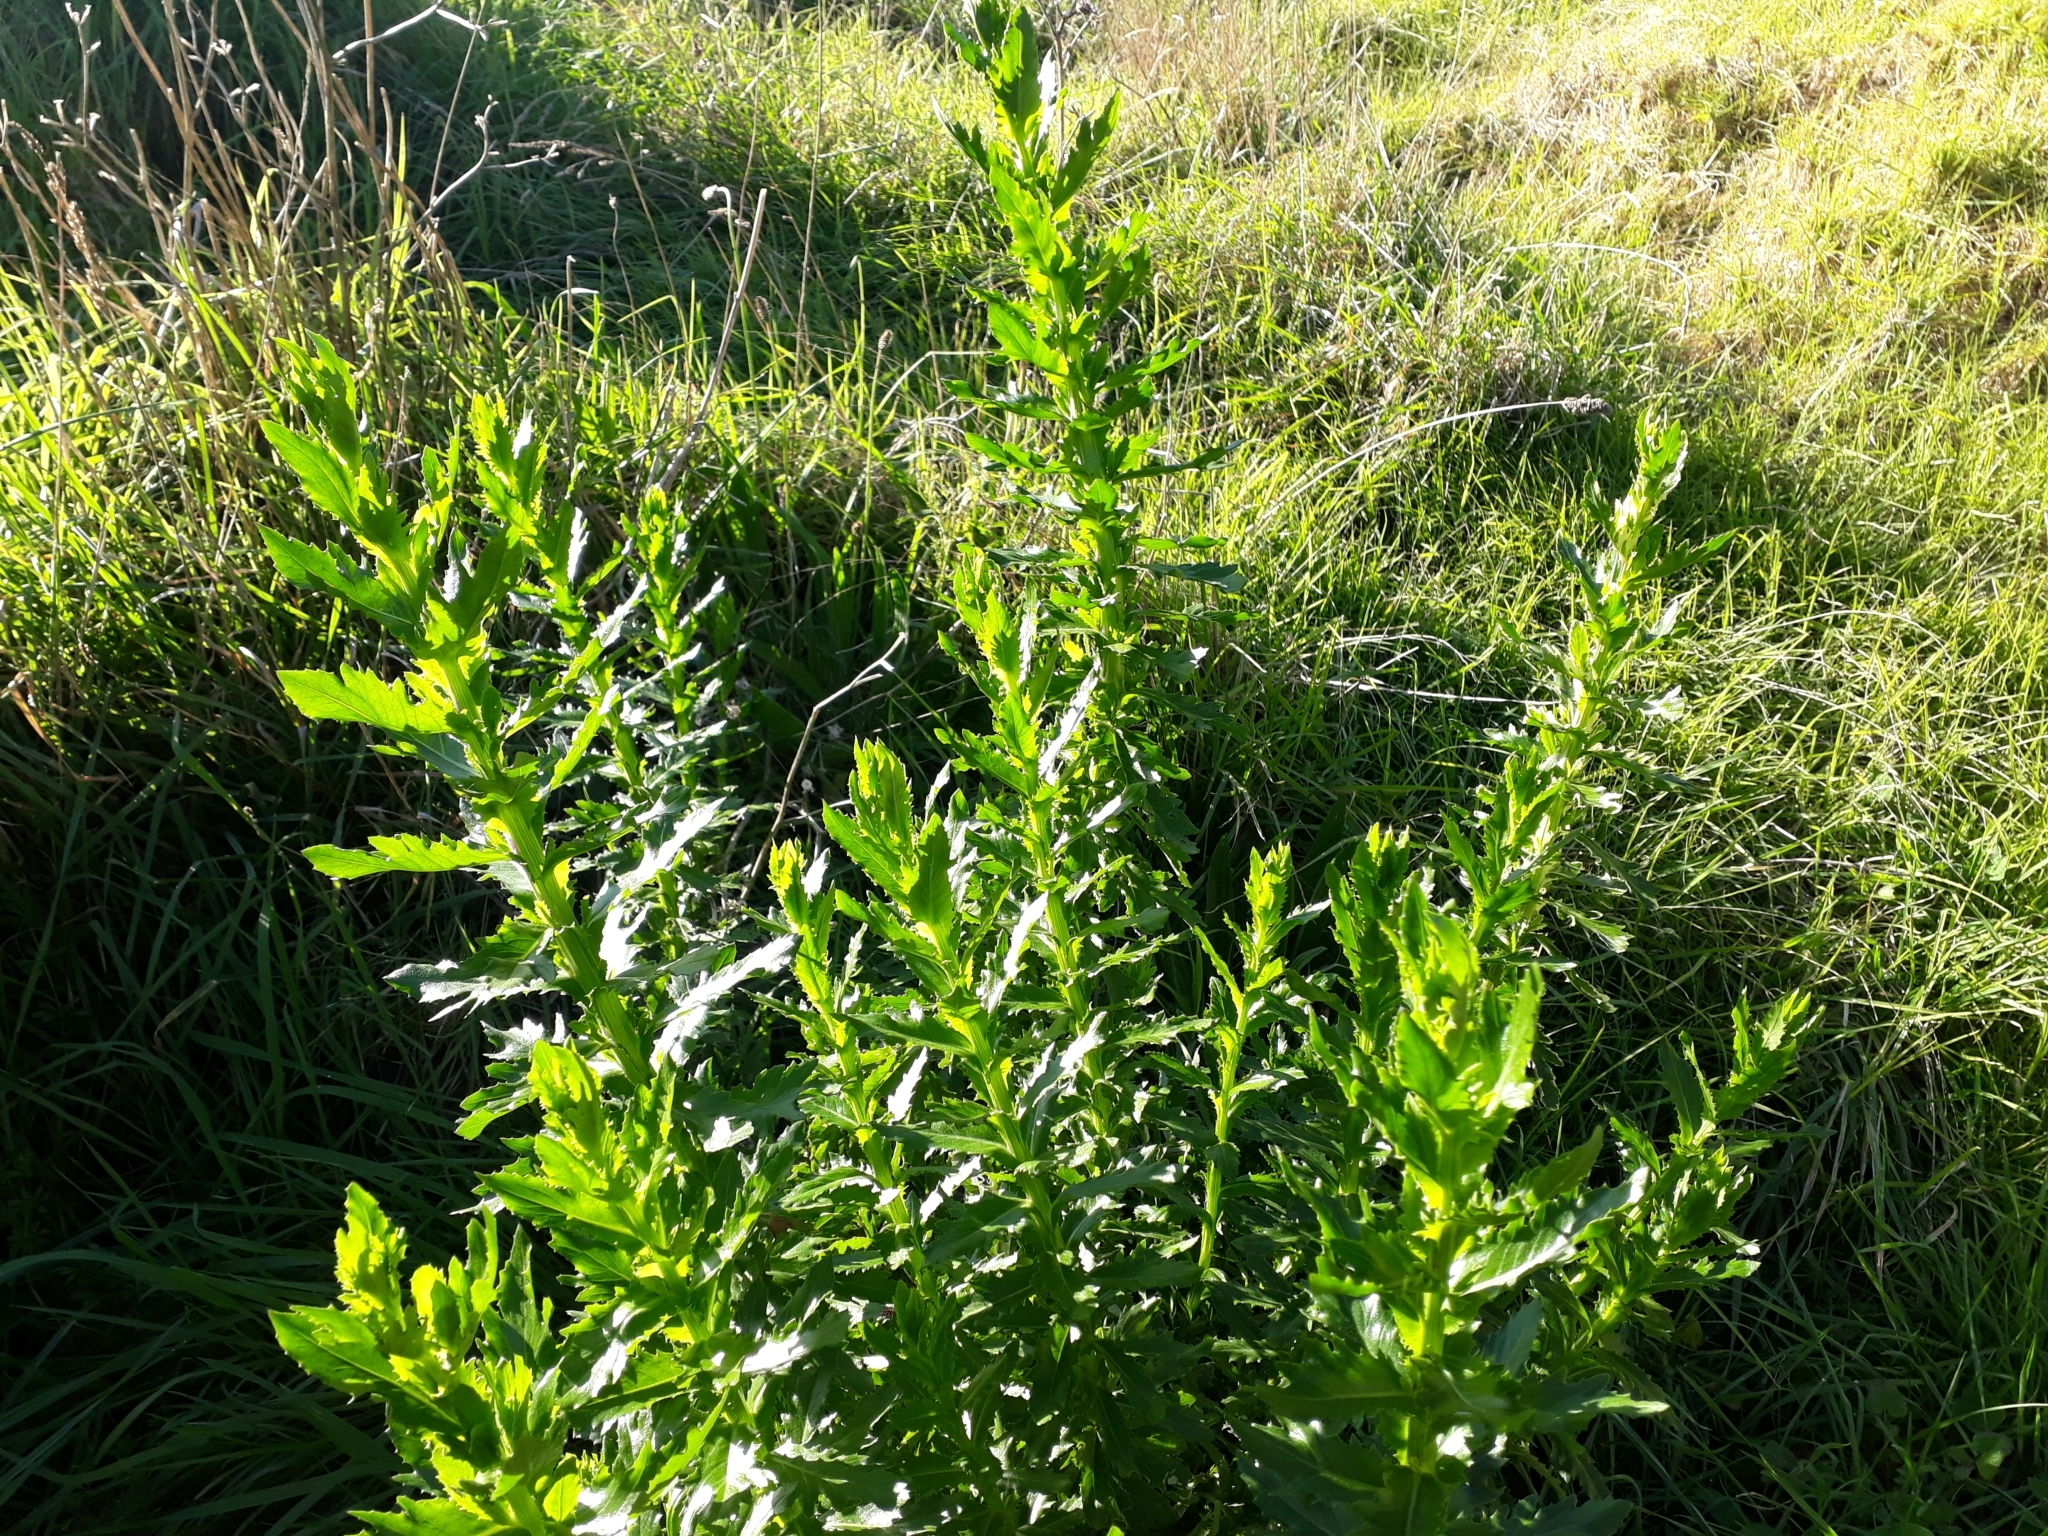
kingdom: Plantae
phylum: Tracheophyta
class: Magnoliopsida
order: Asterales
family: Asteraceae
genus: Senecio
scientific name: Senecio glastifolius
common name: Woad-leaved ragwort
